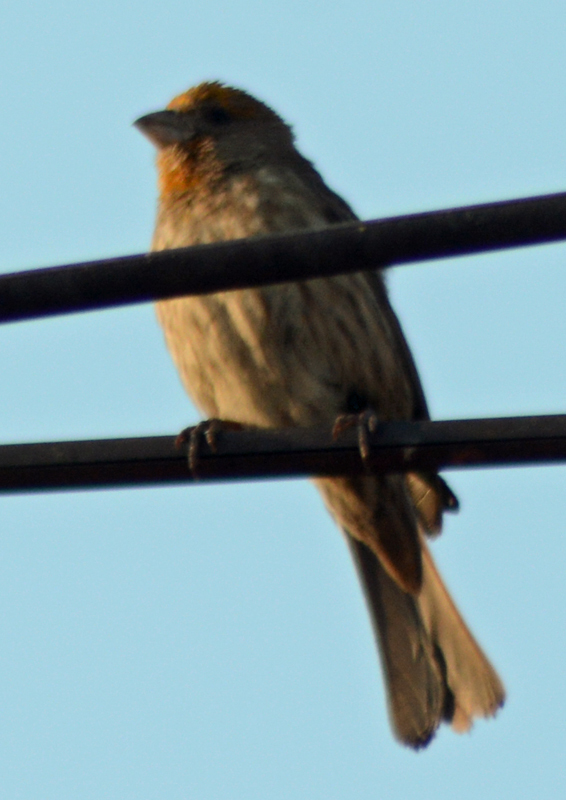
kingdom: Animalia
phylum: Chordata
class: Aves
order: Passeriformes
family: Fringillidae
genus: Haemorhous
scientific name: Haemorhous mexicanus
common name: House finch
